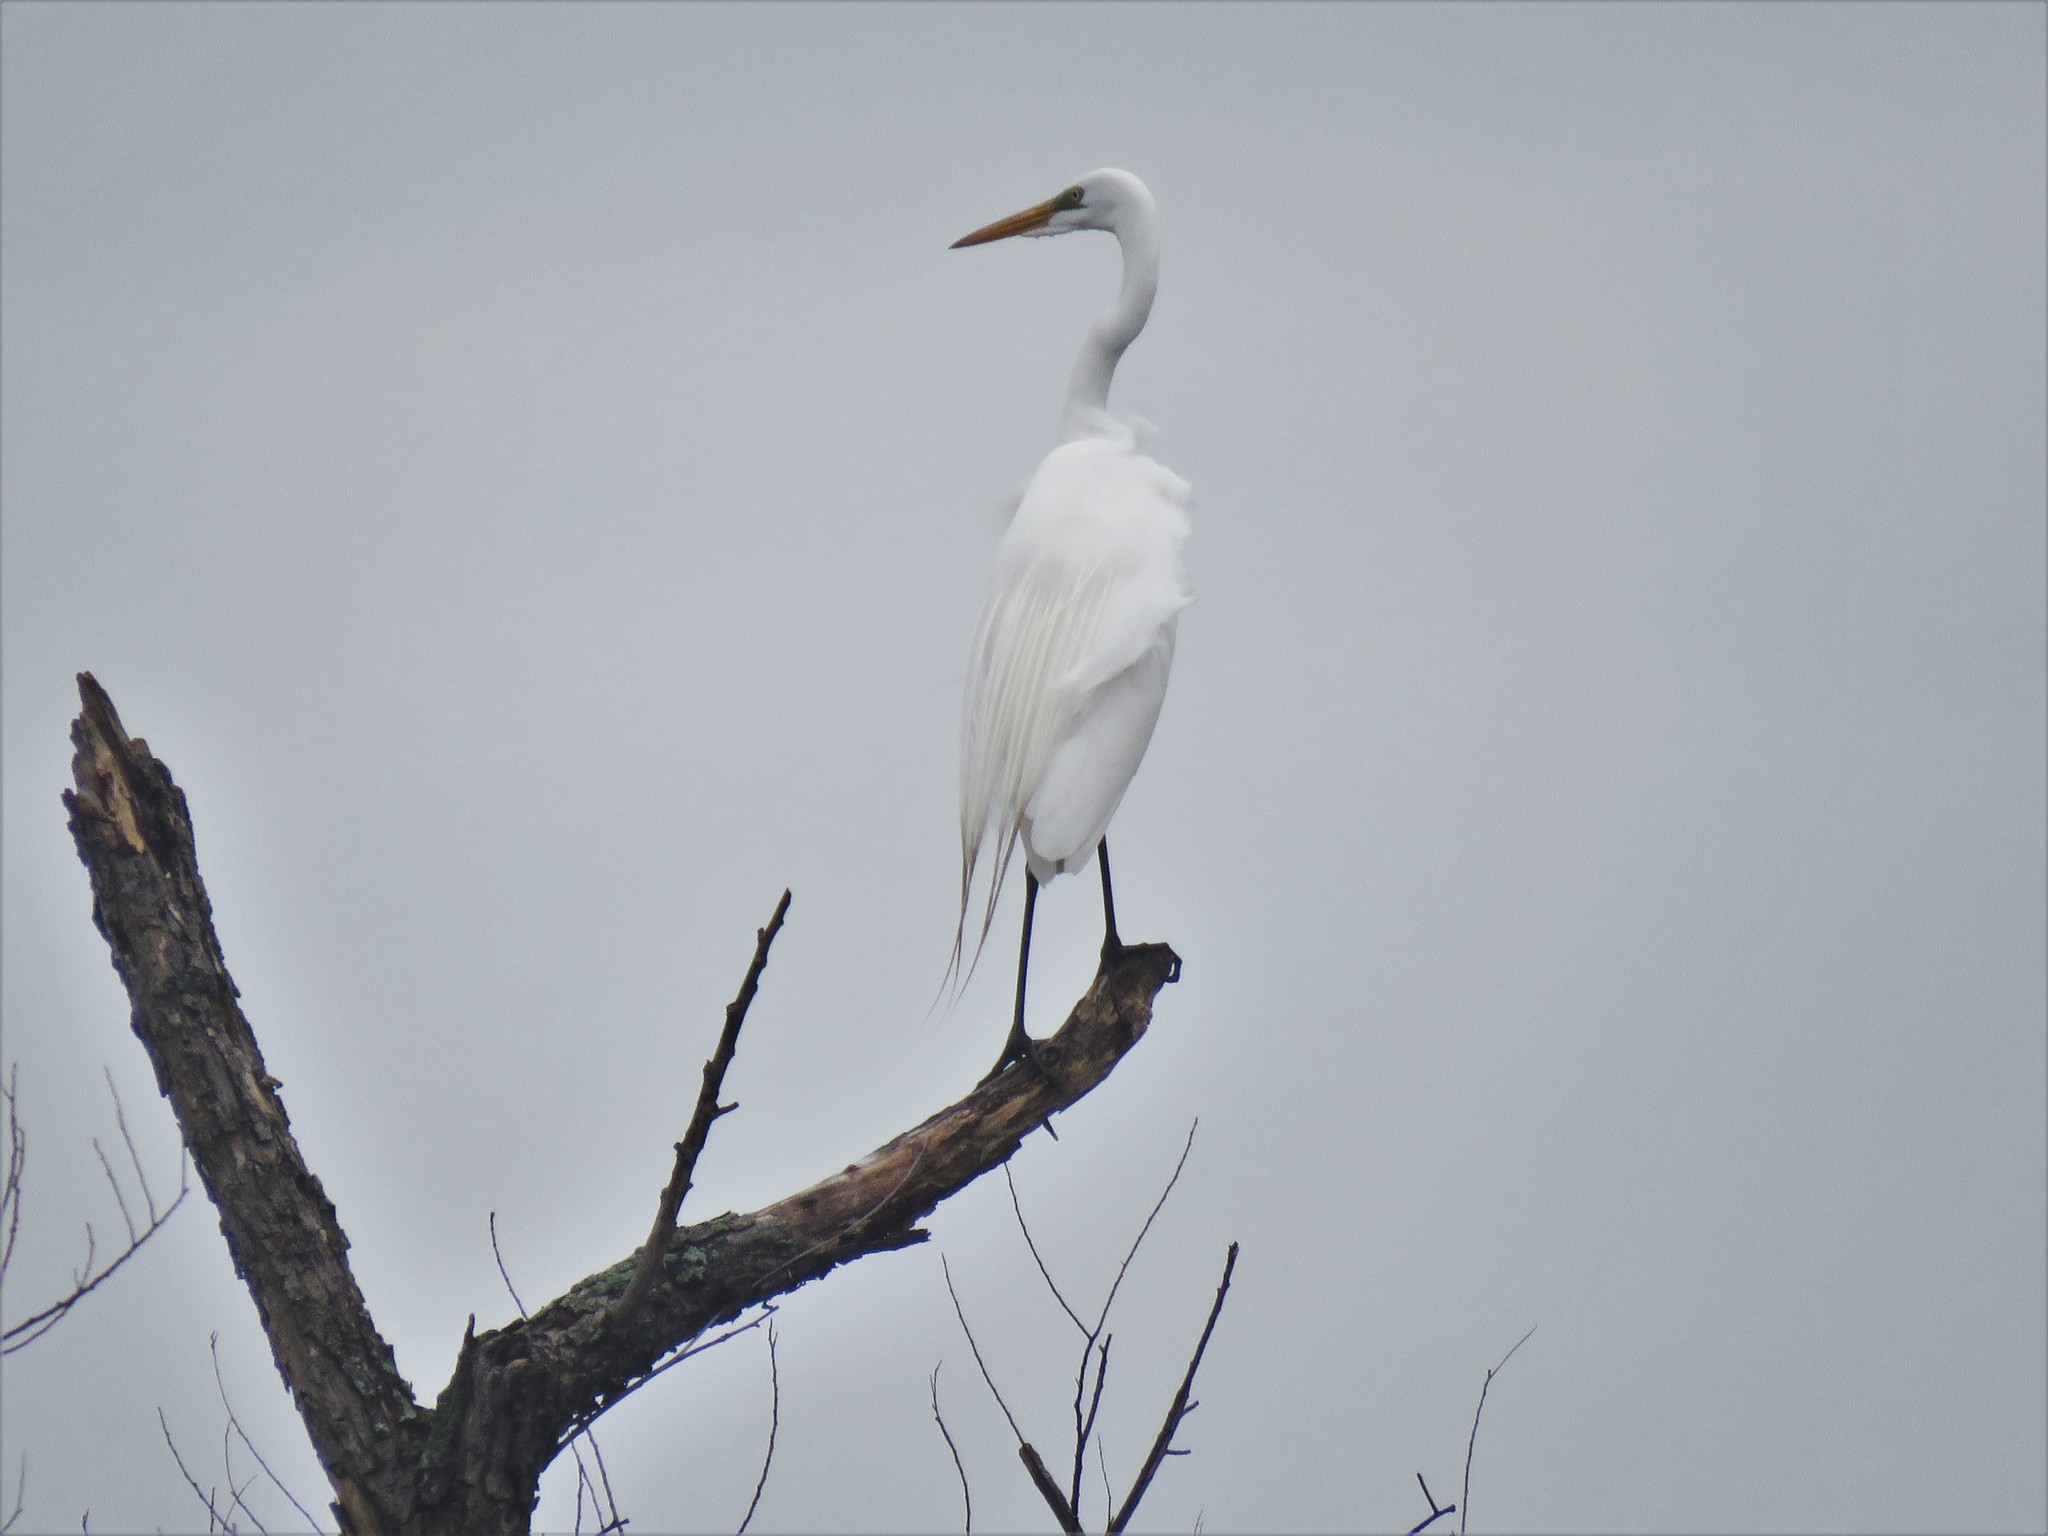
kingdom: Animalia
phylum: Chordata
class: Aves
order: Pelecaniformes
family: Ardeidae
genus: Ardea
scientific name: Ardea alba
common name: Great egret
